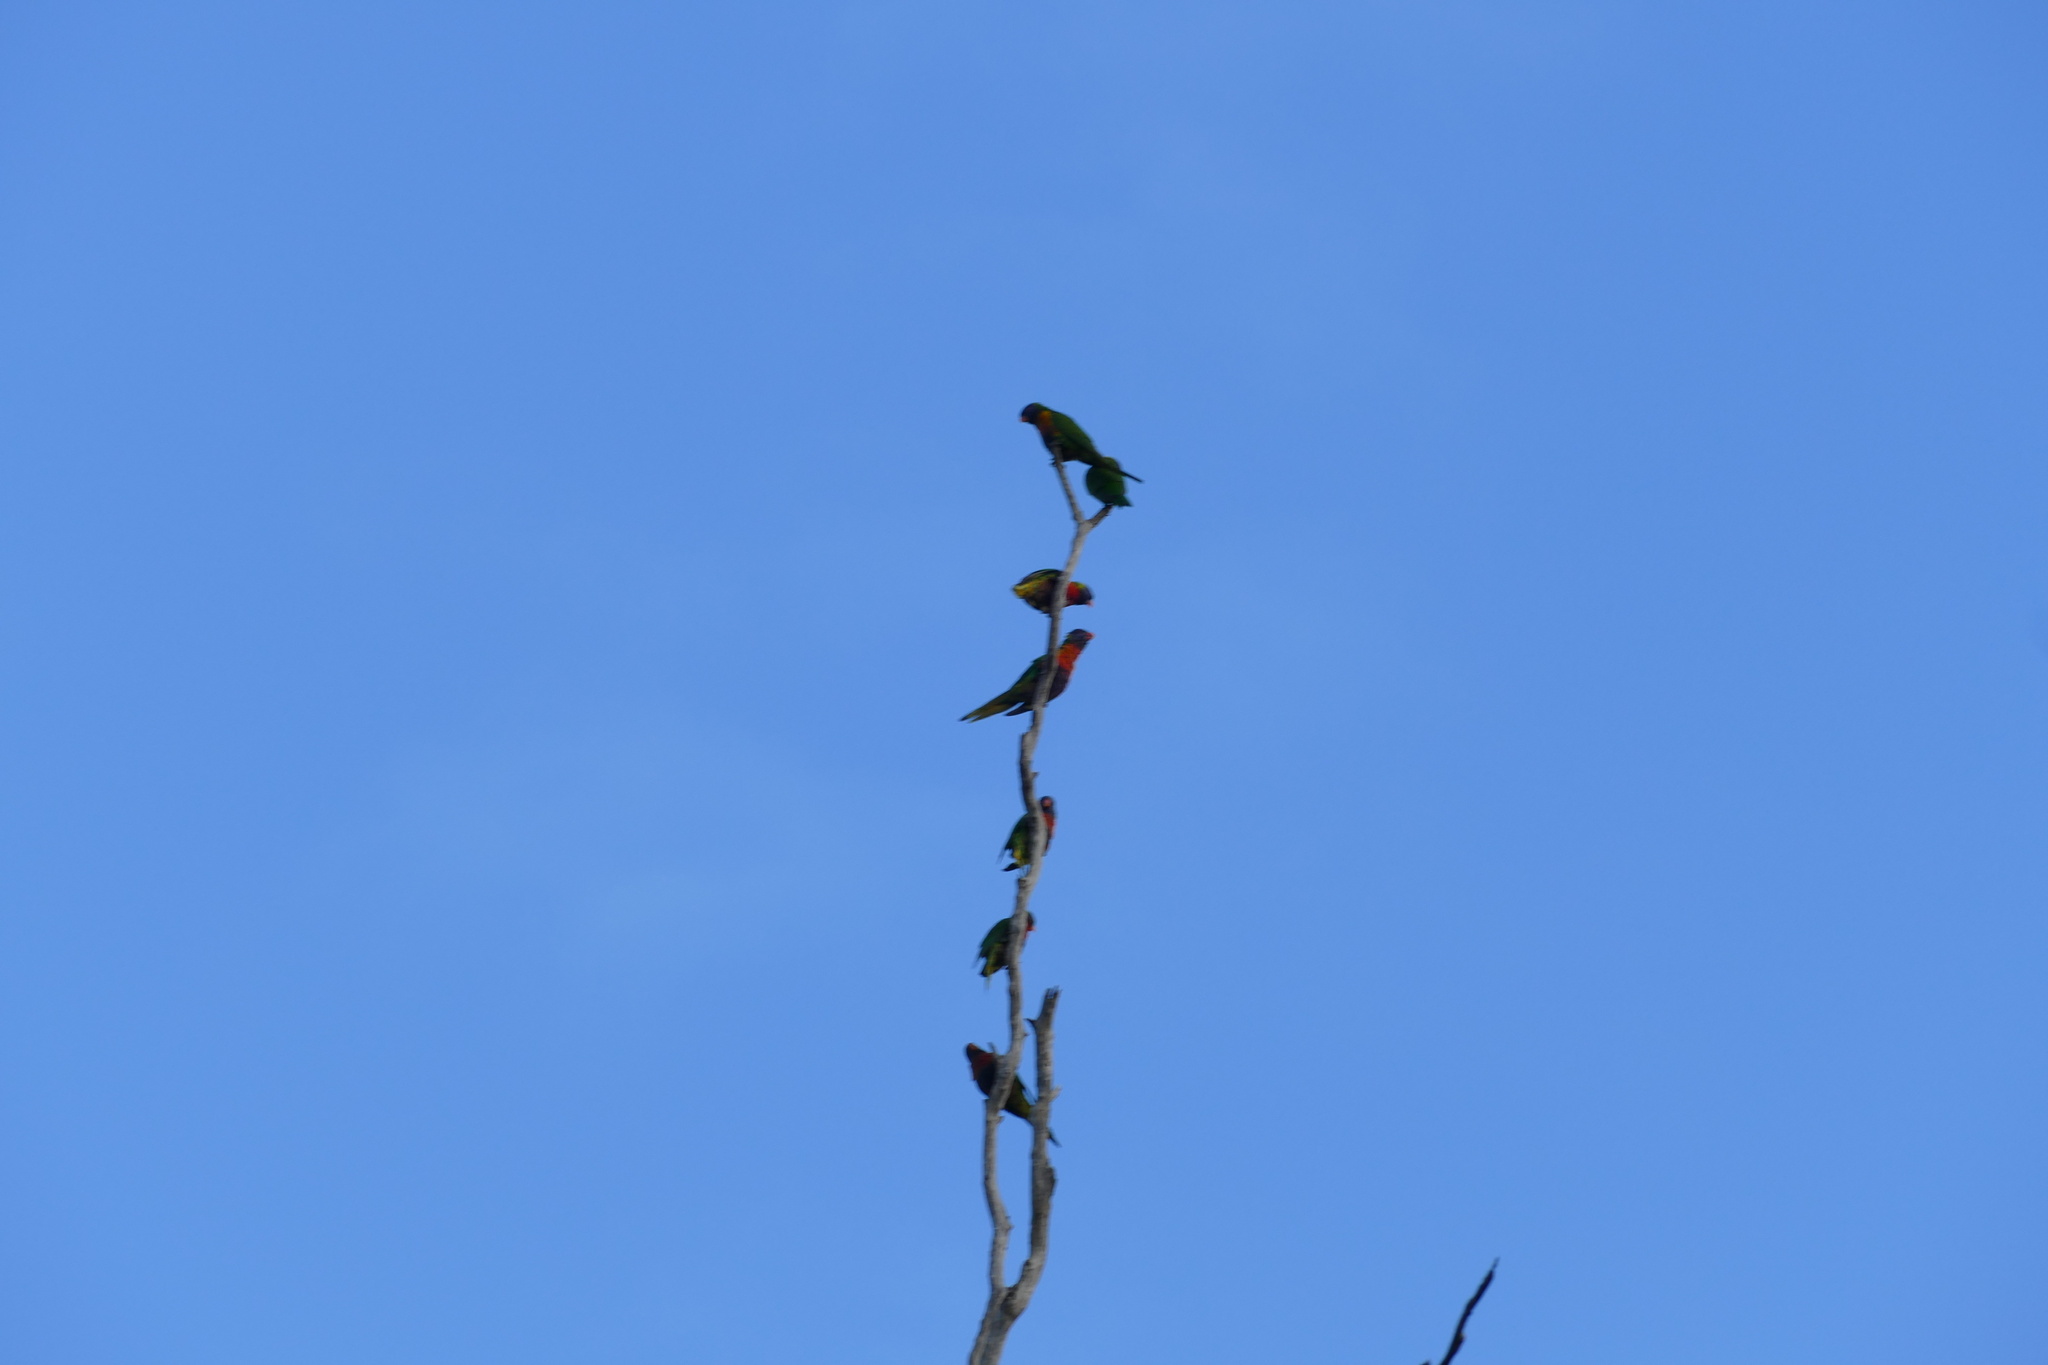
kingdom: Animalia
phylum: Chordata
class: Aves
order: Psittaciformes
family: Psittacidae
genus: Trichoglossus
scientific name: Trichoglossus haematodus
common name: Coconut lorikeet
